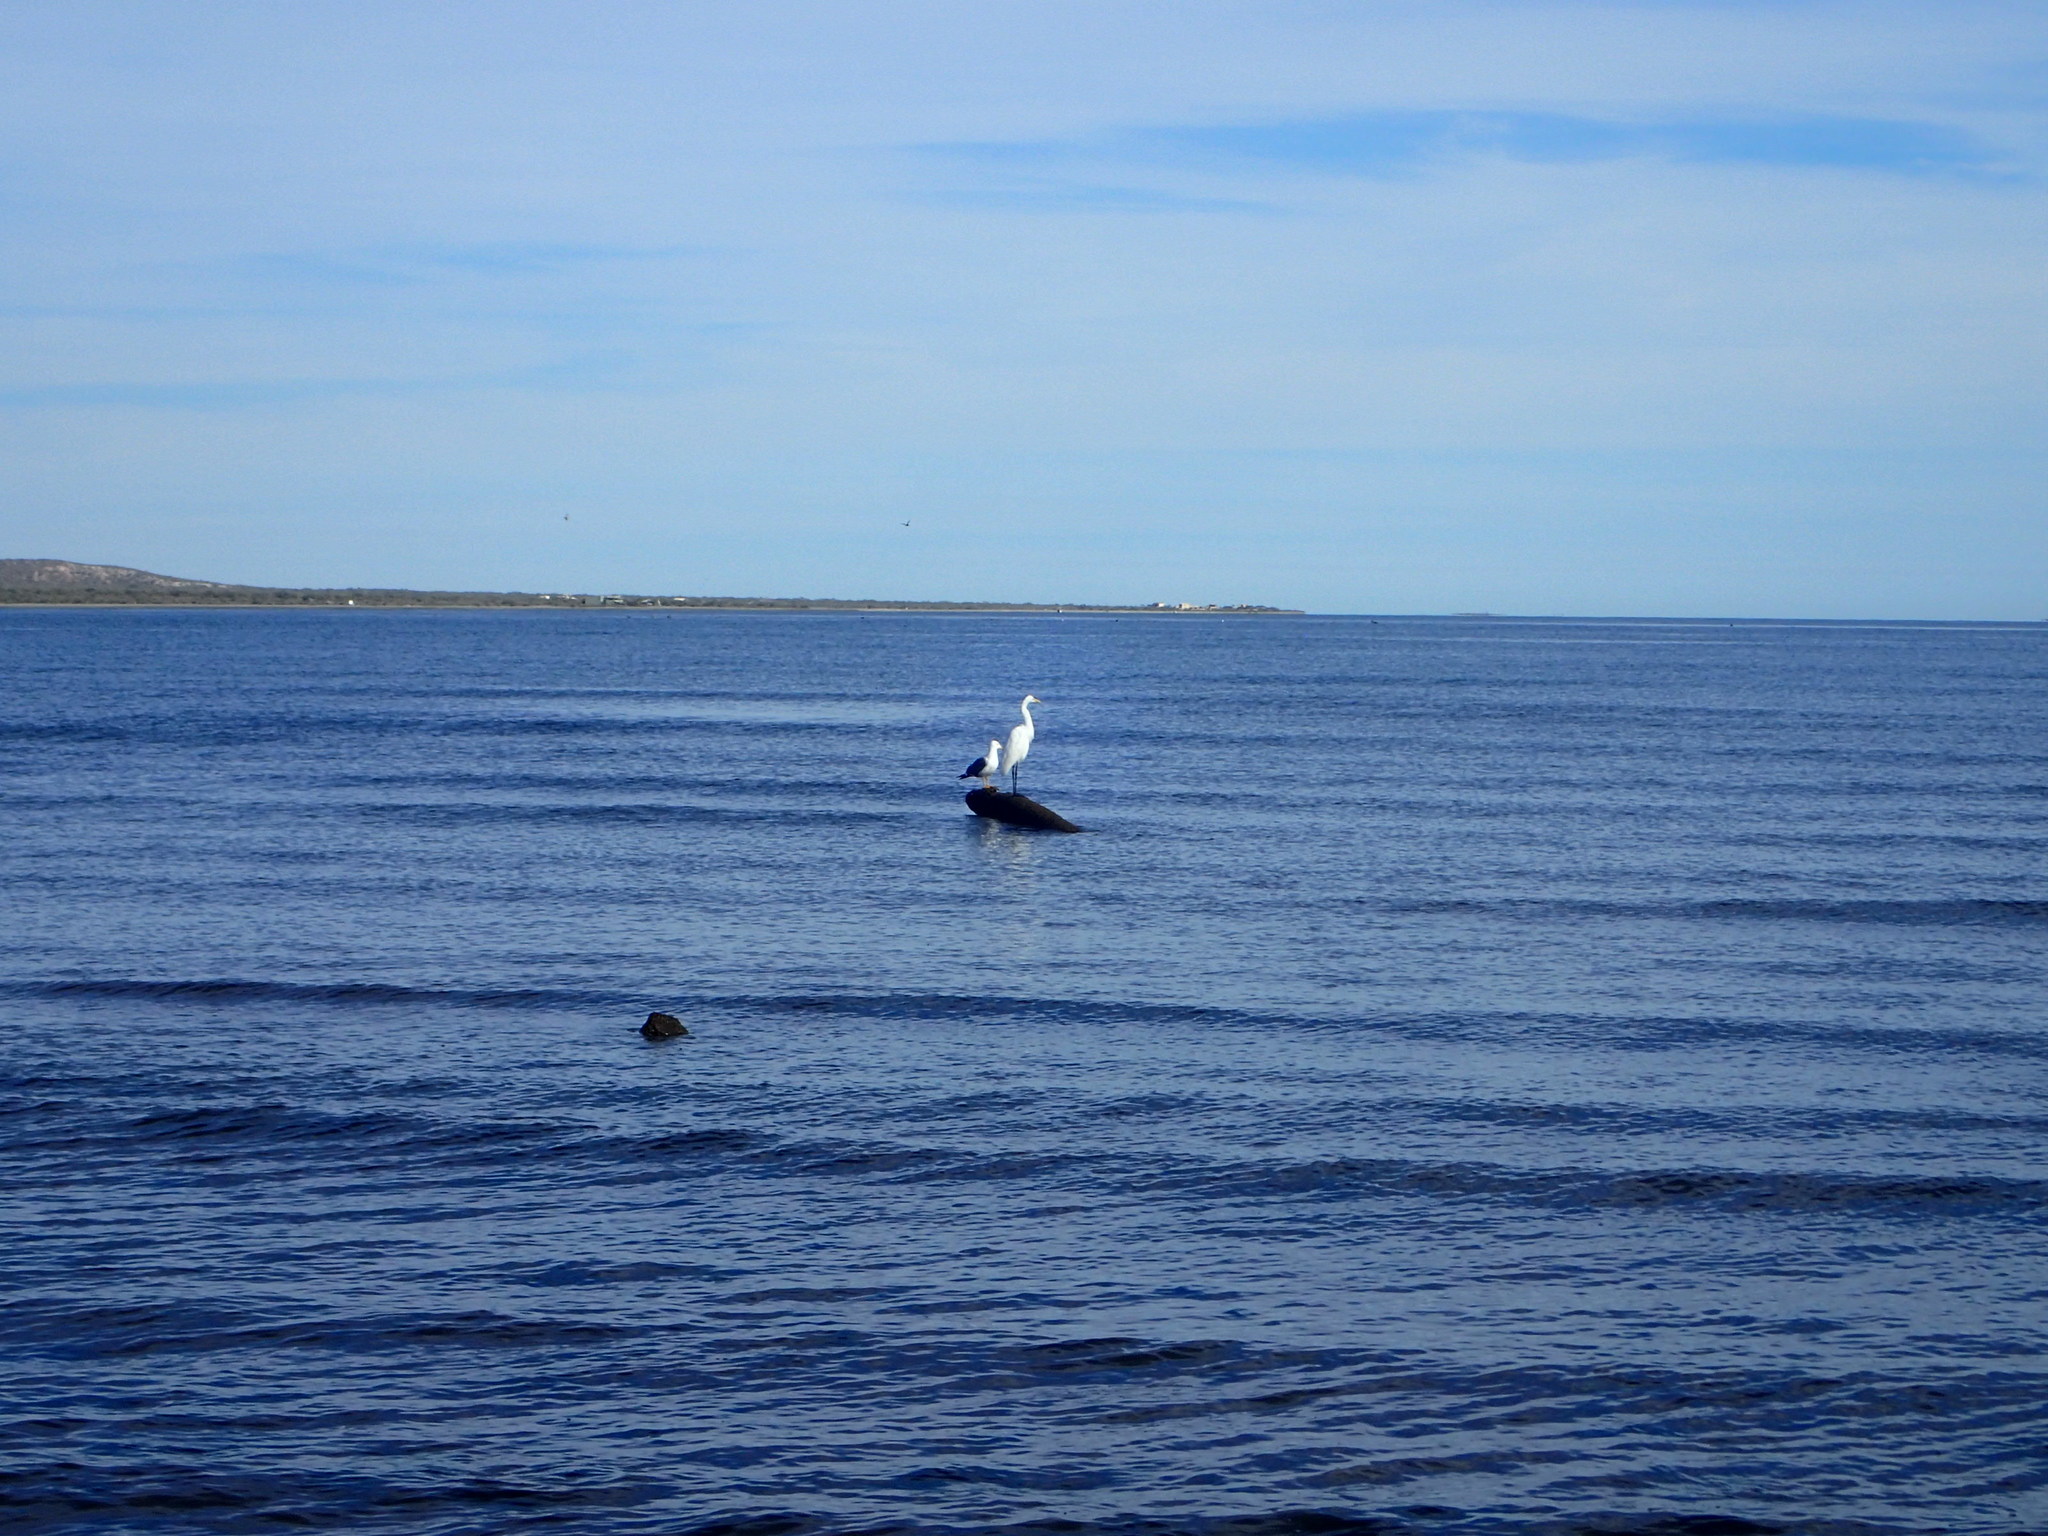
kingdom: Animalia
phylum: Chordata
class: Aves
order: Pelecaniformes
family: Ardeidae
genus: Ardea
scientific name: Ardea alba
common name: Great egret
